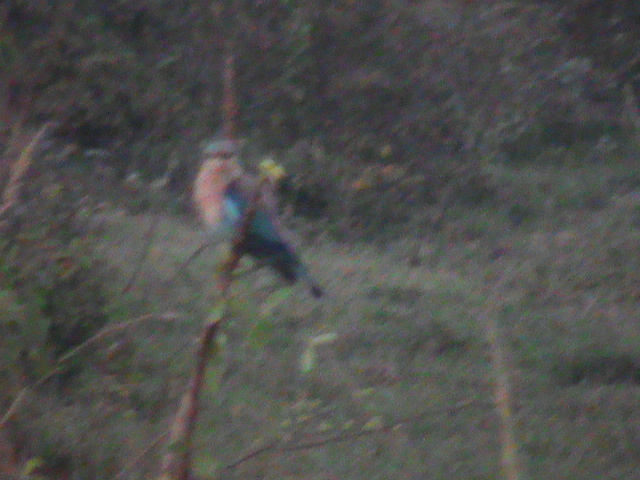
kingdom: Animalia
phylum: Chordata
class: Aves
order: Coraciiformes
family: Coraciidae
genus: Coracias
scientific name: Coracias benghalensis
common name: Indian roller
